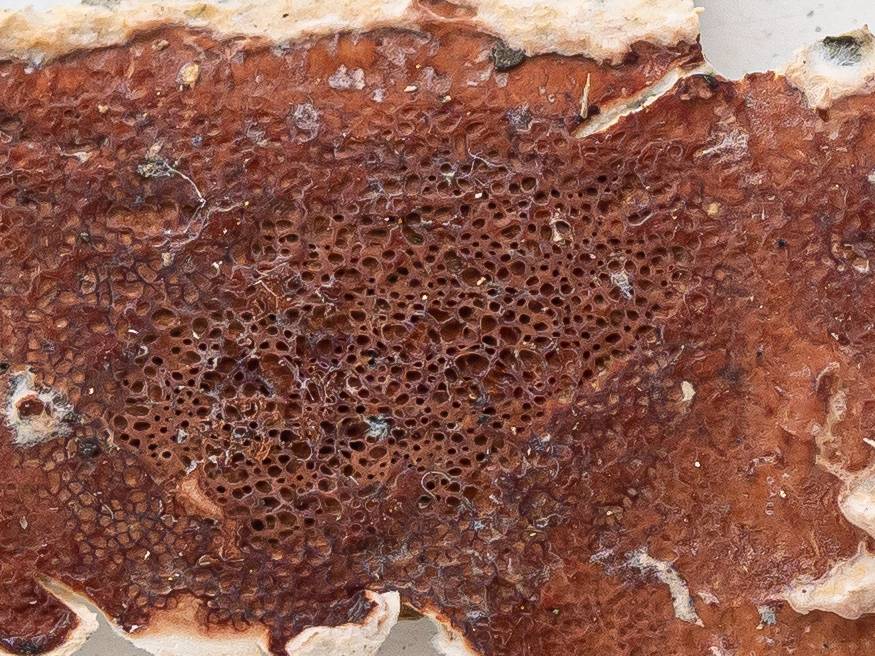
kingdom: Fungi
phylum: Basidiomycota
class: Agaricomycetes
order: Polyporales
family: Irpicaceae
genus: Meruliopsis
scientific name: Meruliopsis taxicola
